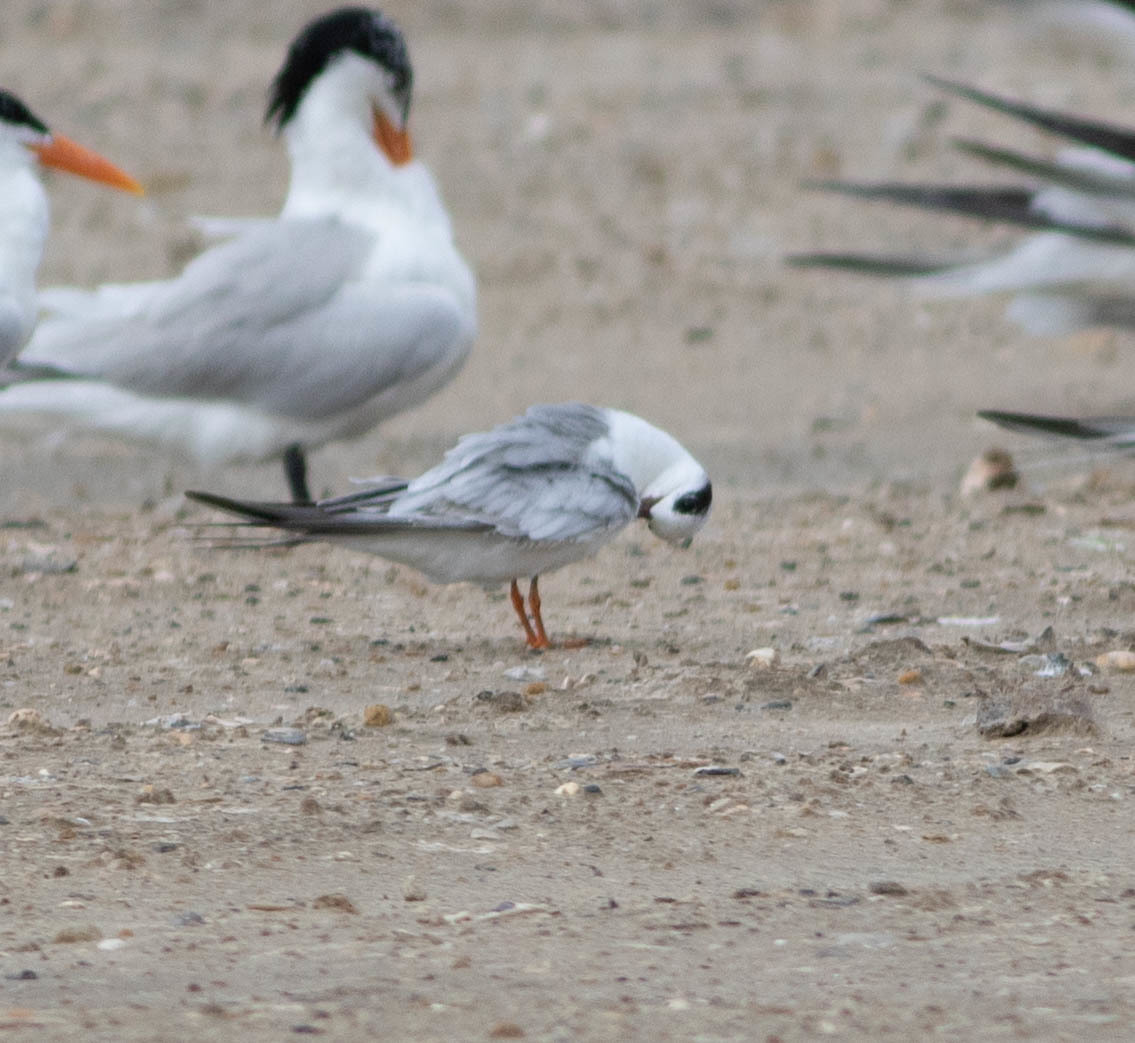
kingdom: Animalia
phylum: Chordata
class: Aves
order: Charadriiformes
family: Laridae
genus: Sterna
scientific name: Sterna forsteri
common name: Forster's tern
